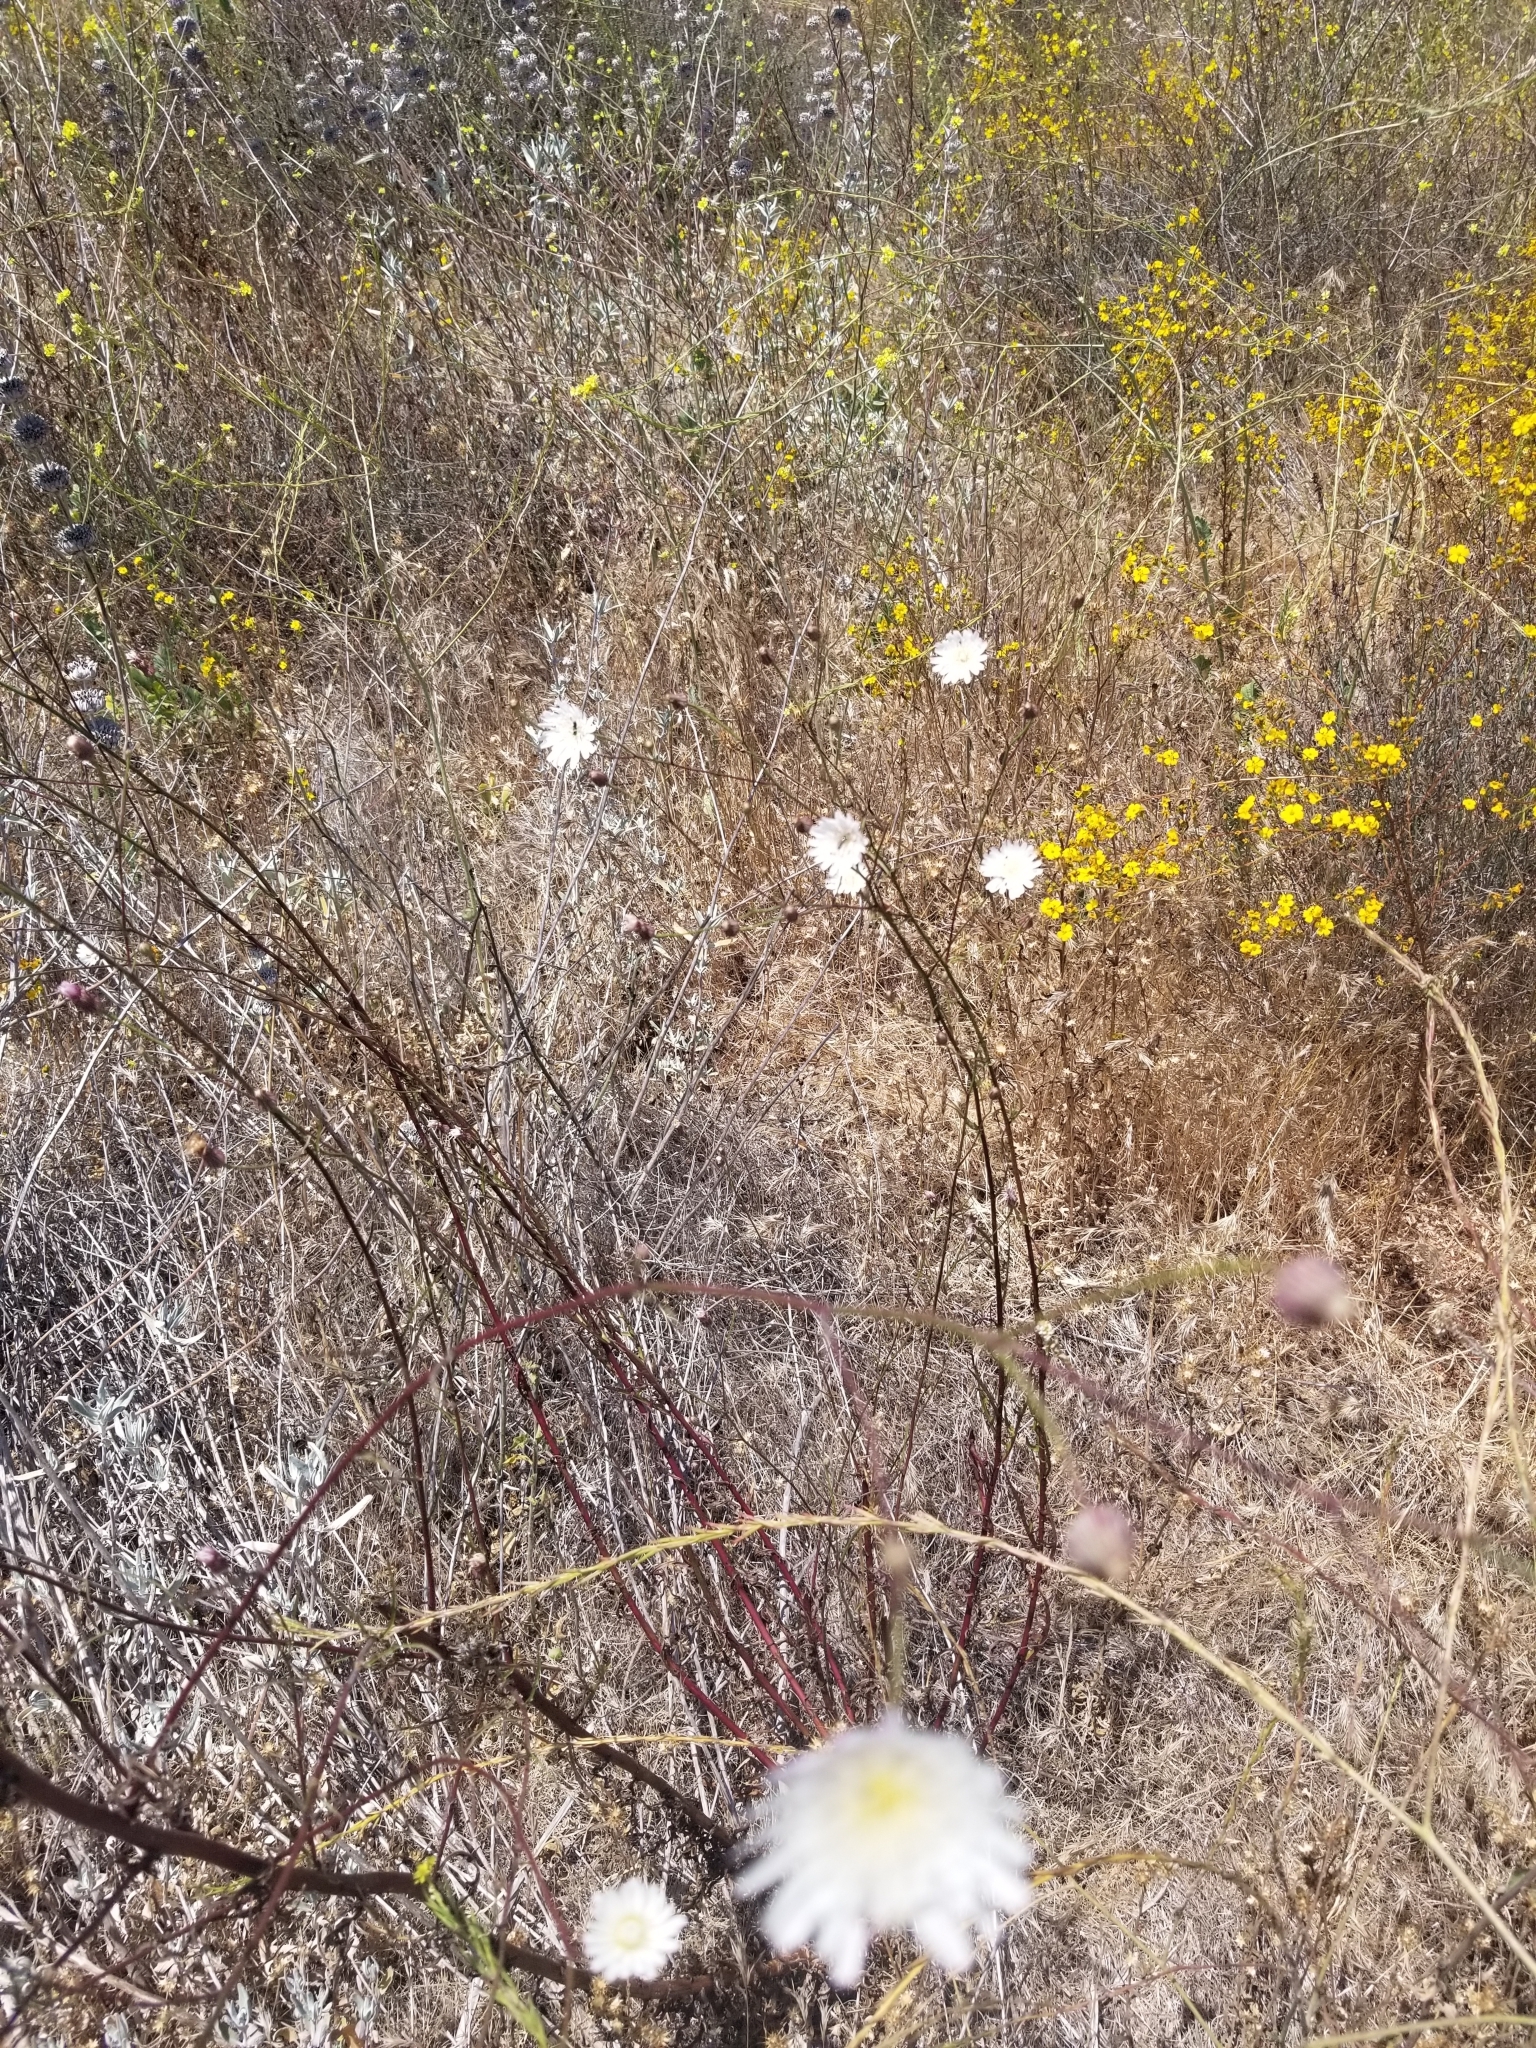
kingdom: Plantae
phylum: Tracheophyta
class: Magnoliopsida
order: Asterales
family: Asteraceae
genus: Malacothrix
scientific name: Malacothrix saxatilis
